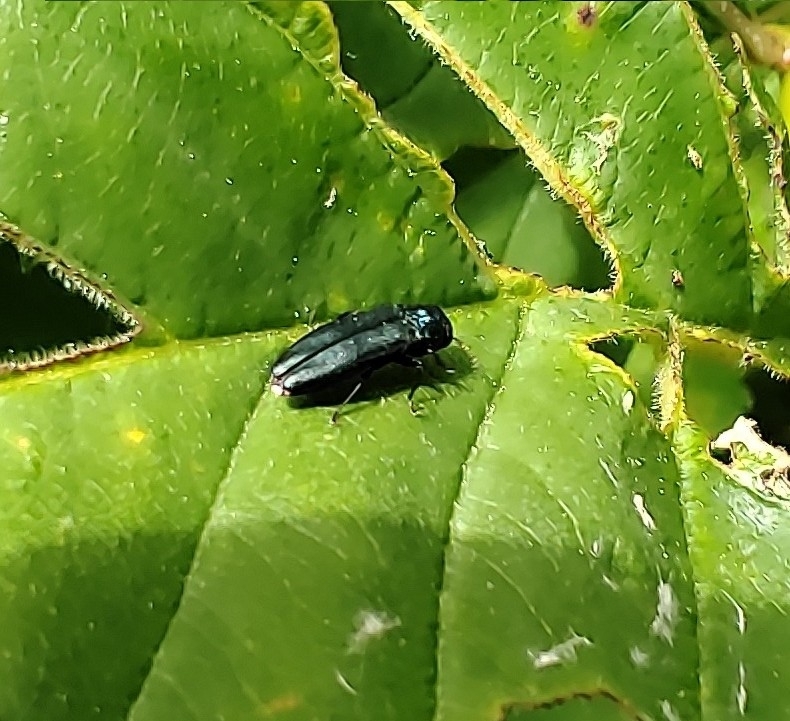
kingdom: Animalia
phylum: Arthropoda
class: Insecta
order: Coleoptera
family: Buprestidae
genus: Agrilus
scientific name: Agrilus cyanescens
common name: Bluish borer beetle
